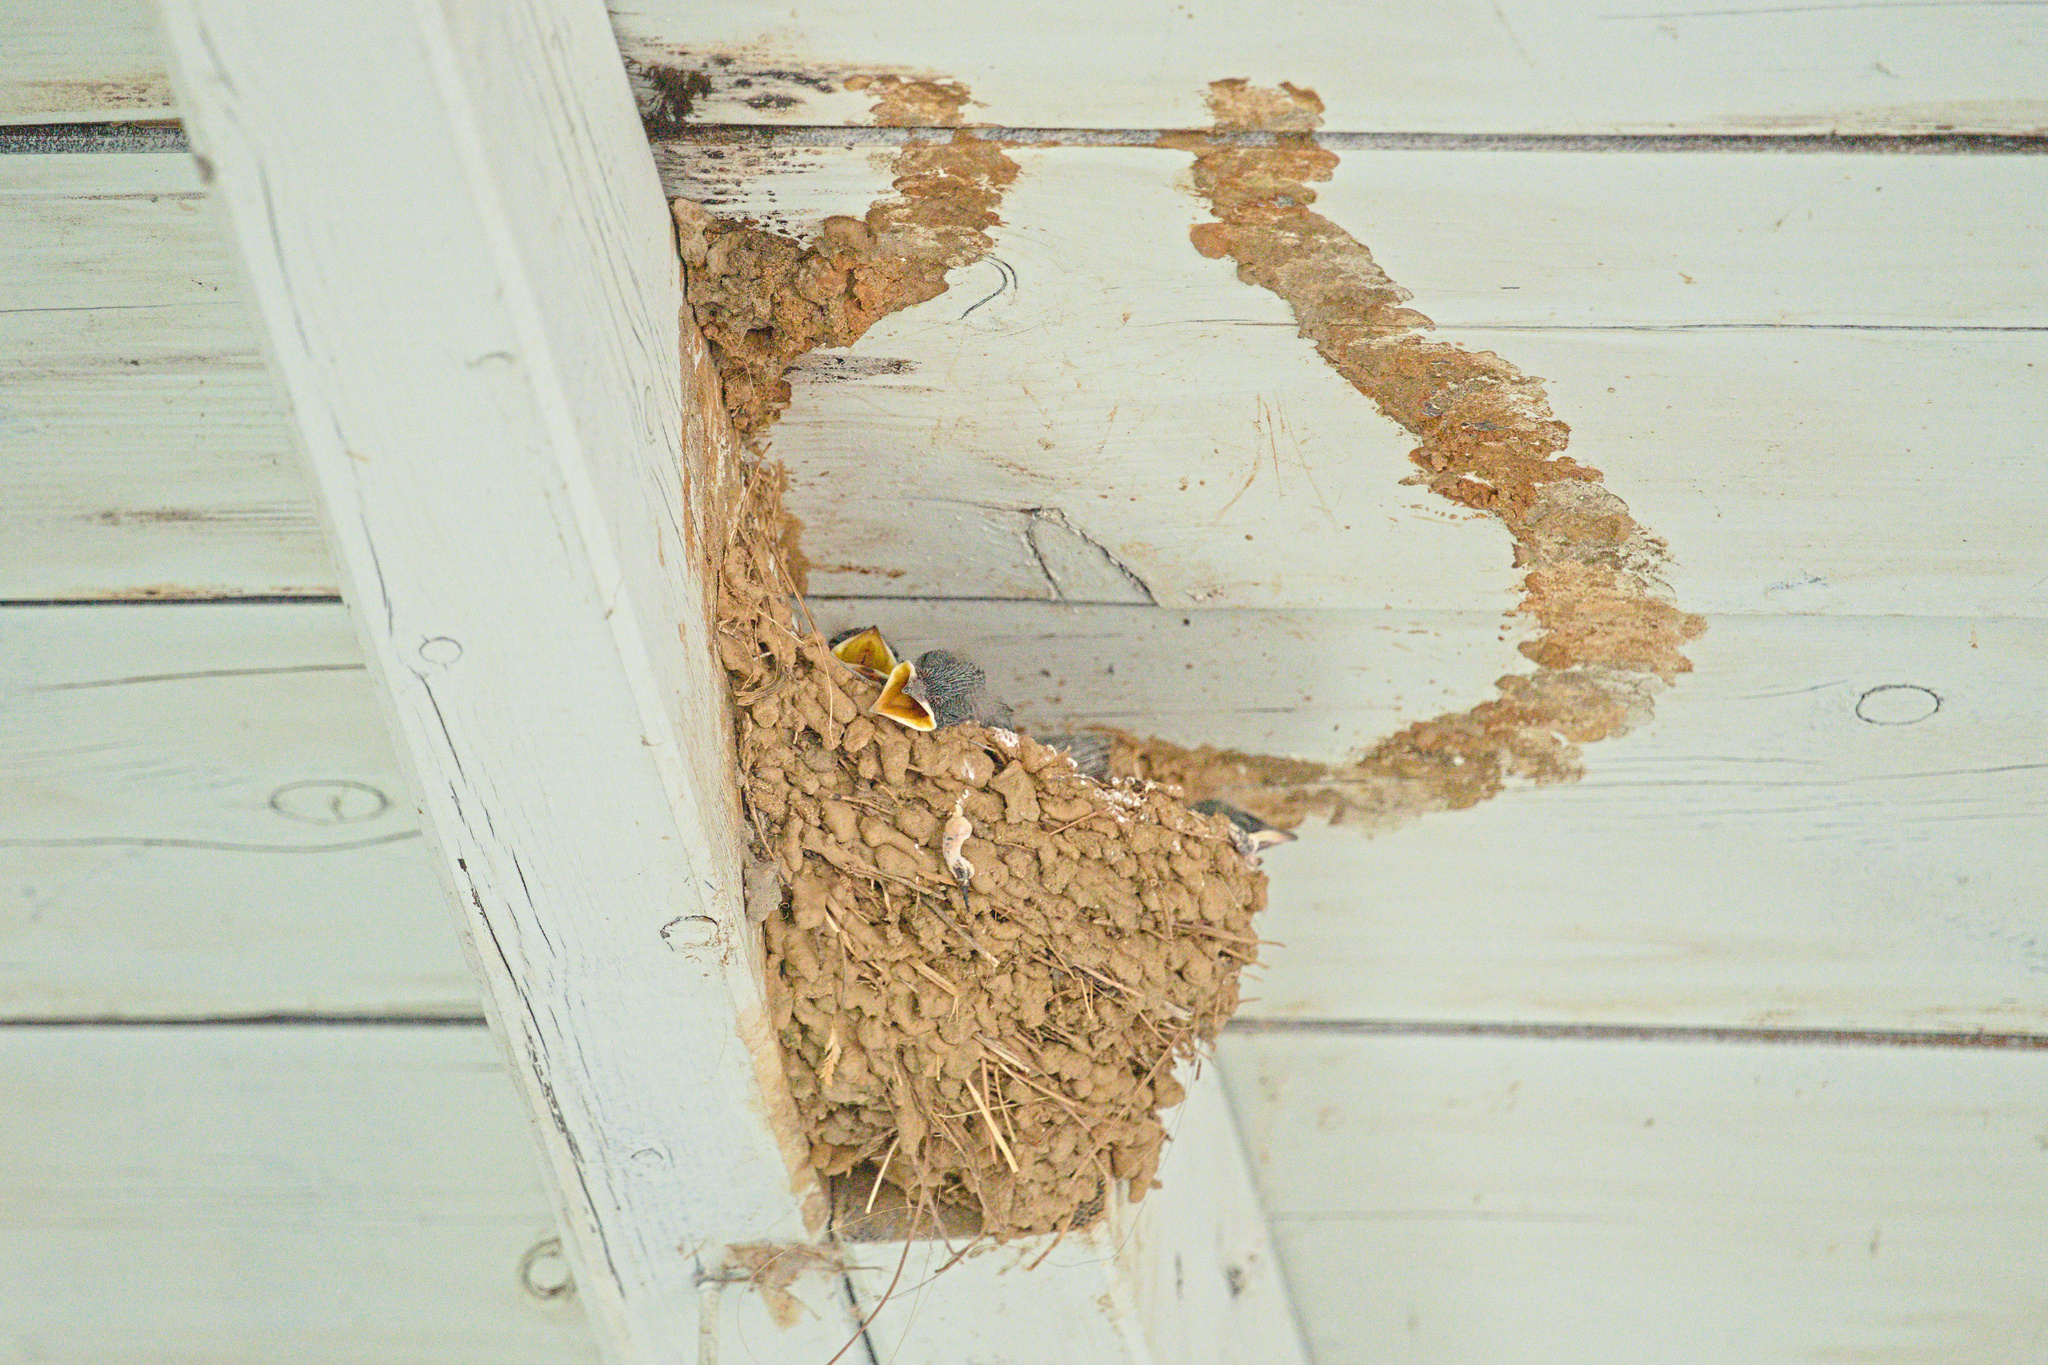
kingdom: Animalia
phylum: Chordata
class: Aves
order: Passeriformes
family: Hirundinidae
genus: Hirundo
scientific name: Hirundo rustica
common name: Barn swallow
